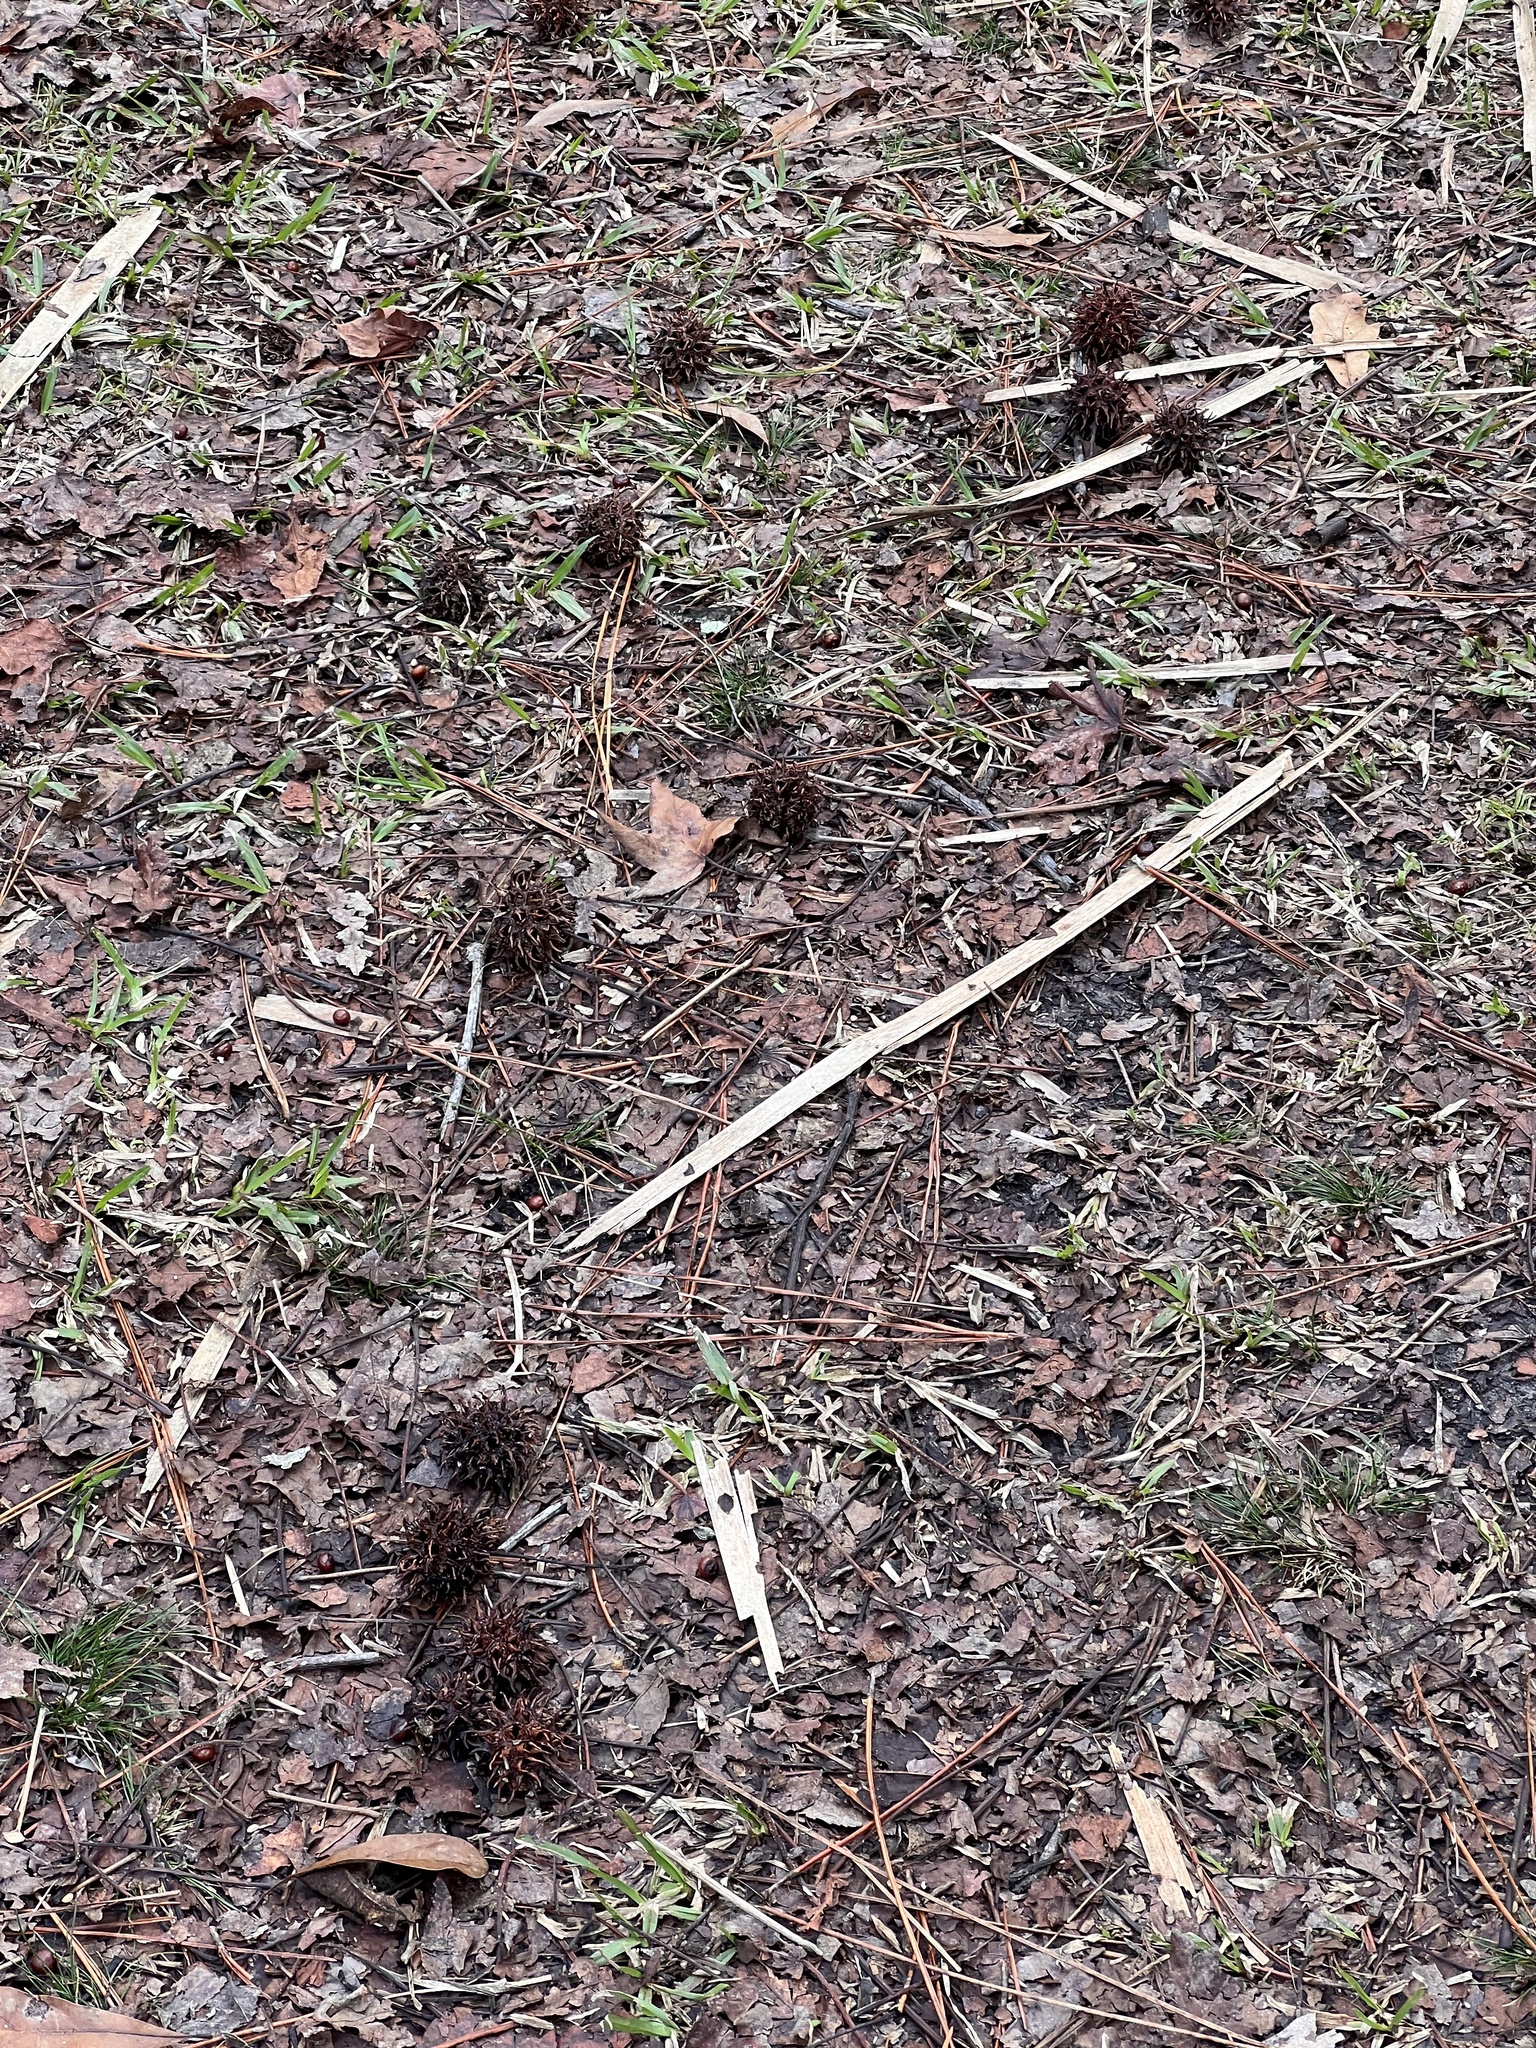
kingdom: Plantae
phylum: Tracheophyta
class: Magnoliopsida
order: Saxifragales
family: Altingiaceae
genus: Liquidambar
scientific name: Liquidambar styraciflua
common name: Sweet gum
